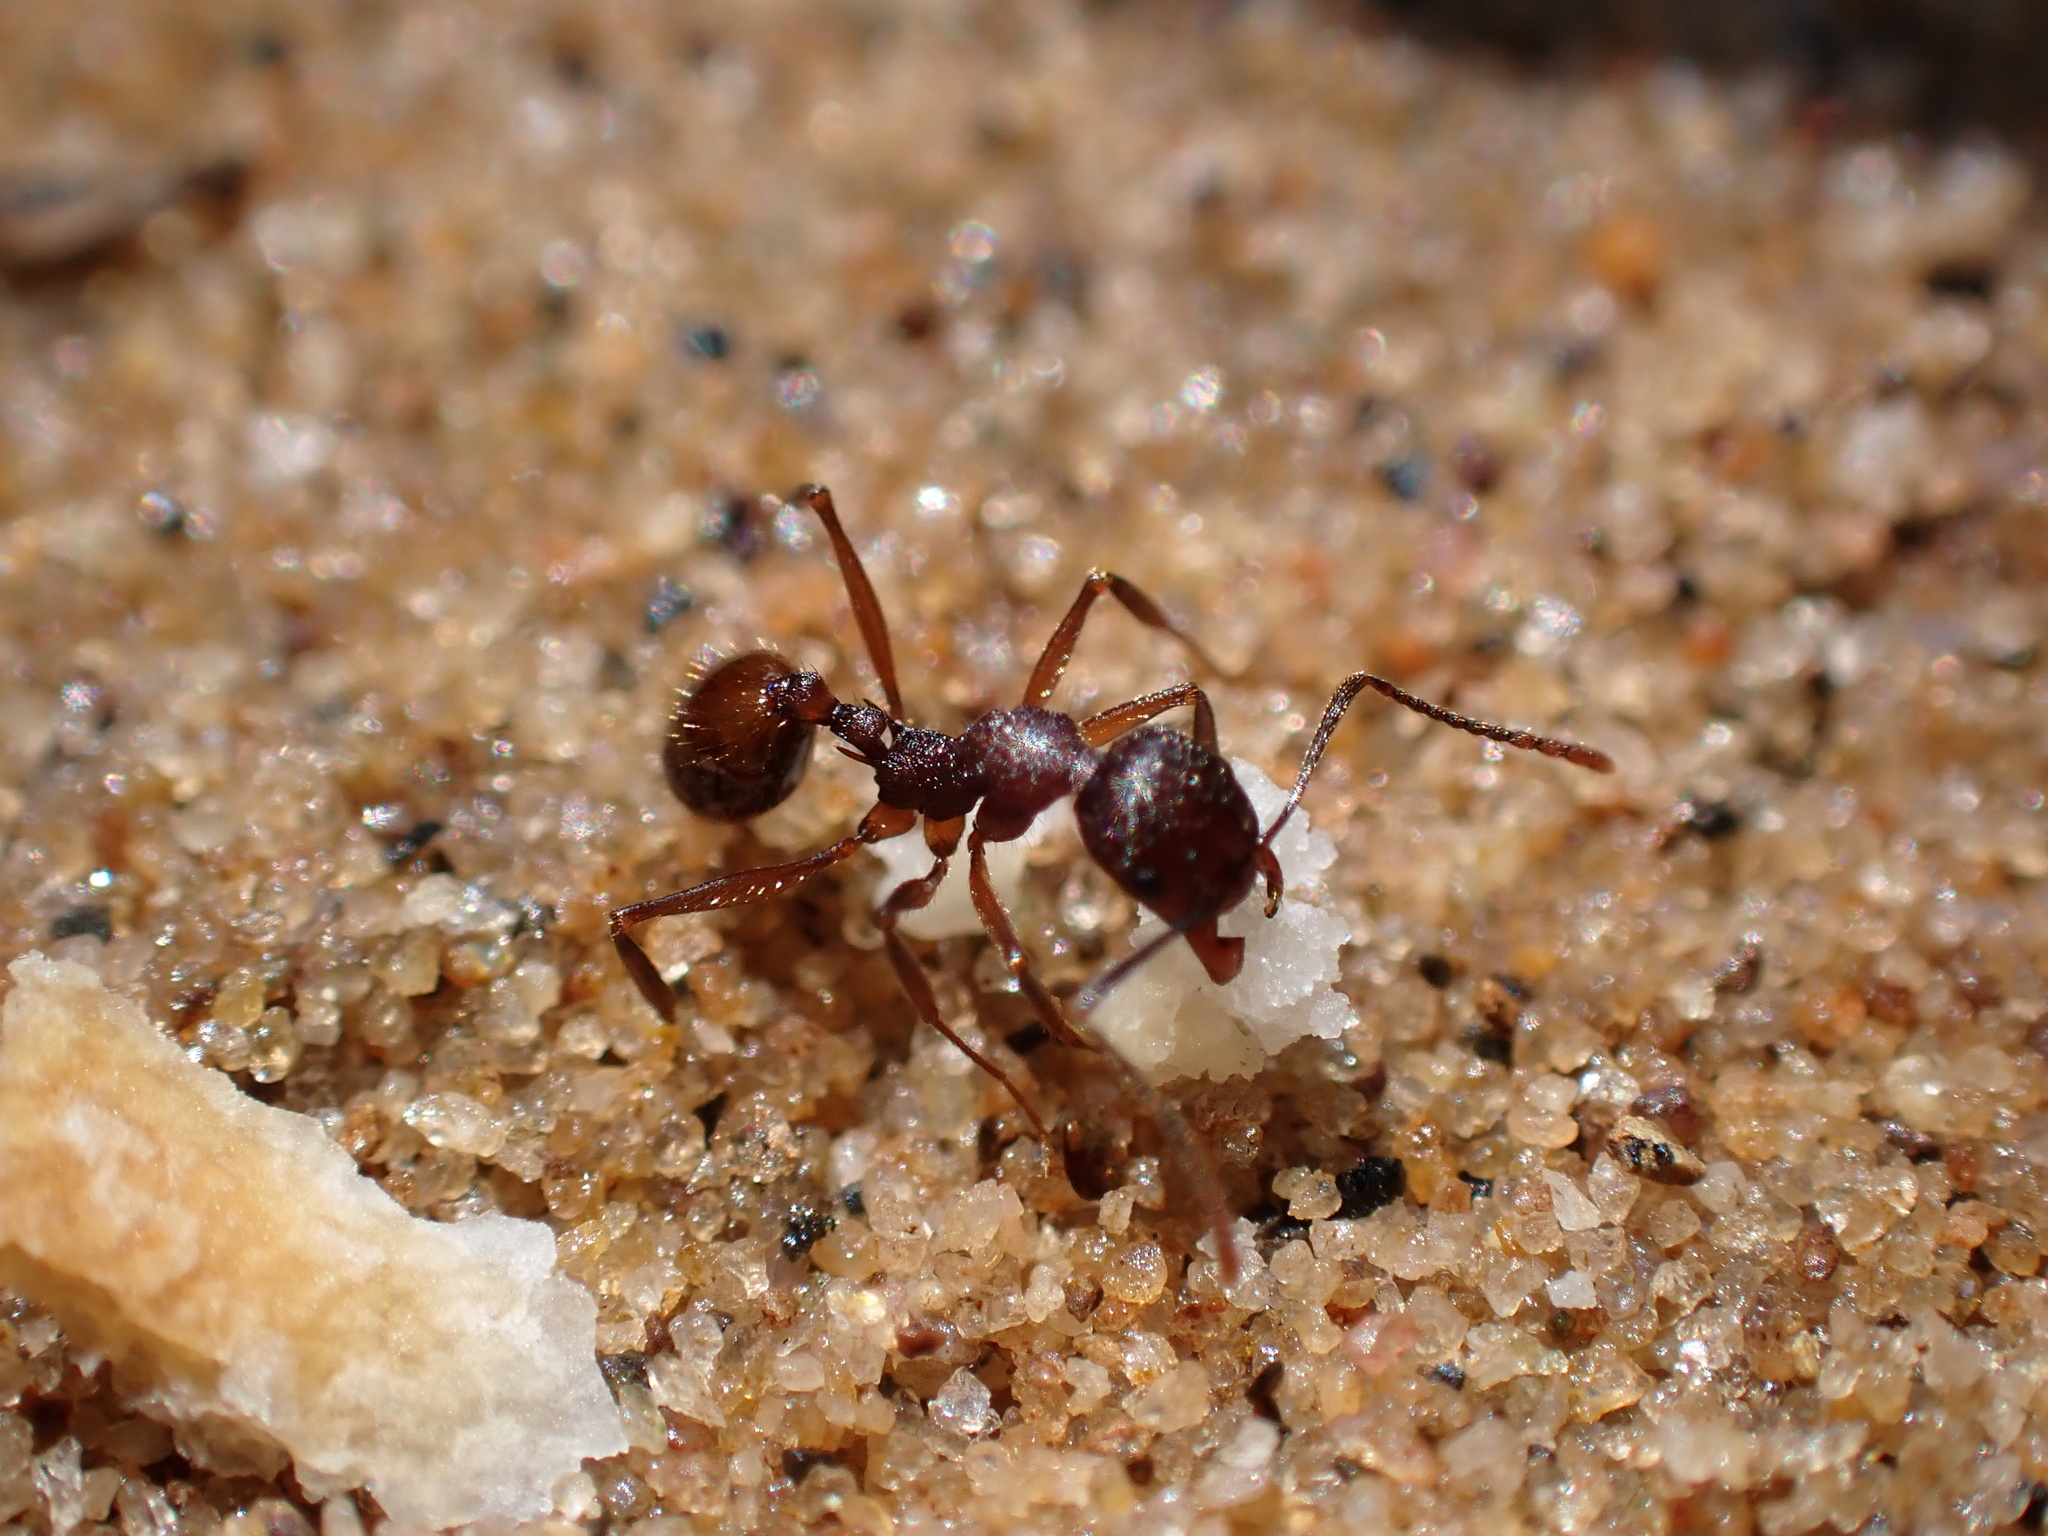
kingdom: Animalia
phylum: Arthropoda
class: Insecta
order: Hymenoptera
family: Formicidae
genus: Aphaenogaster
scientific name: Aphaenogaster fulva
